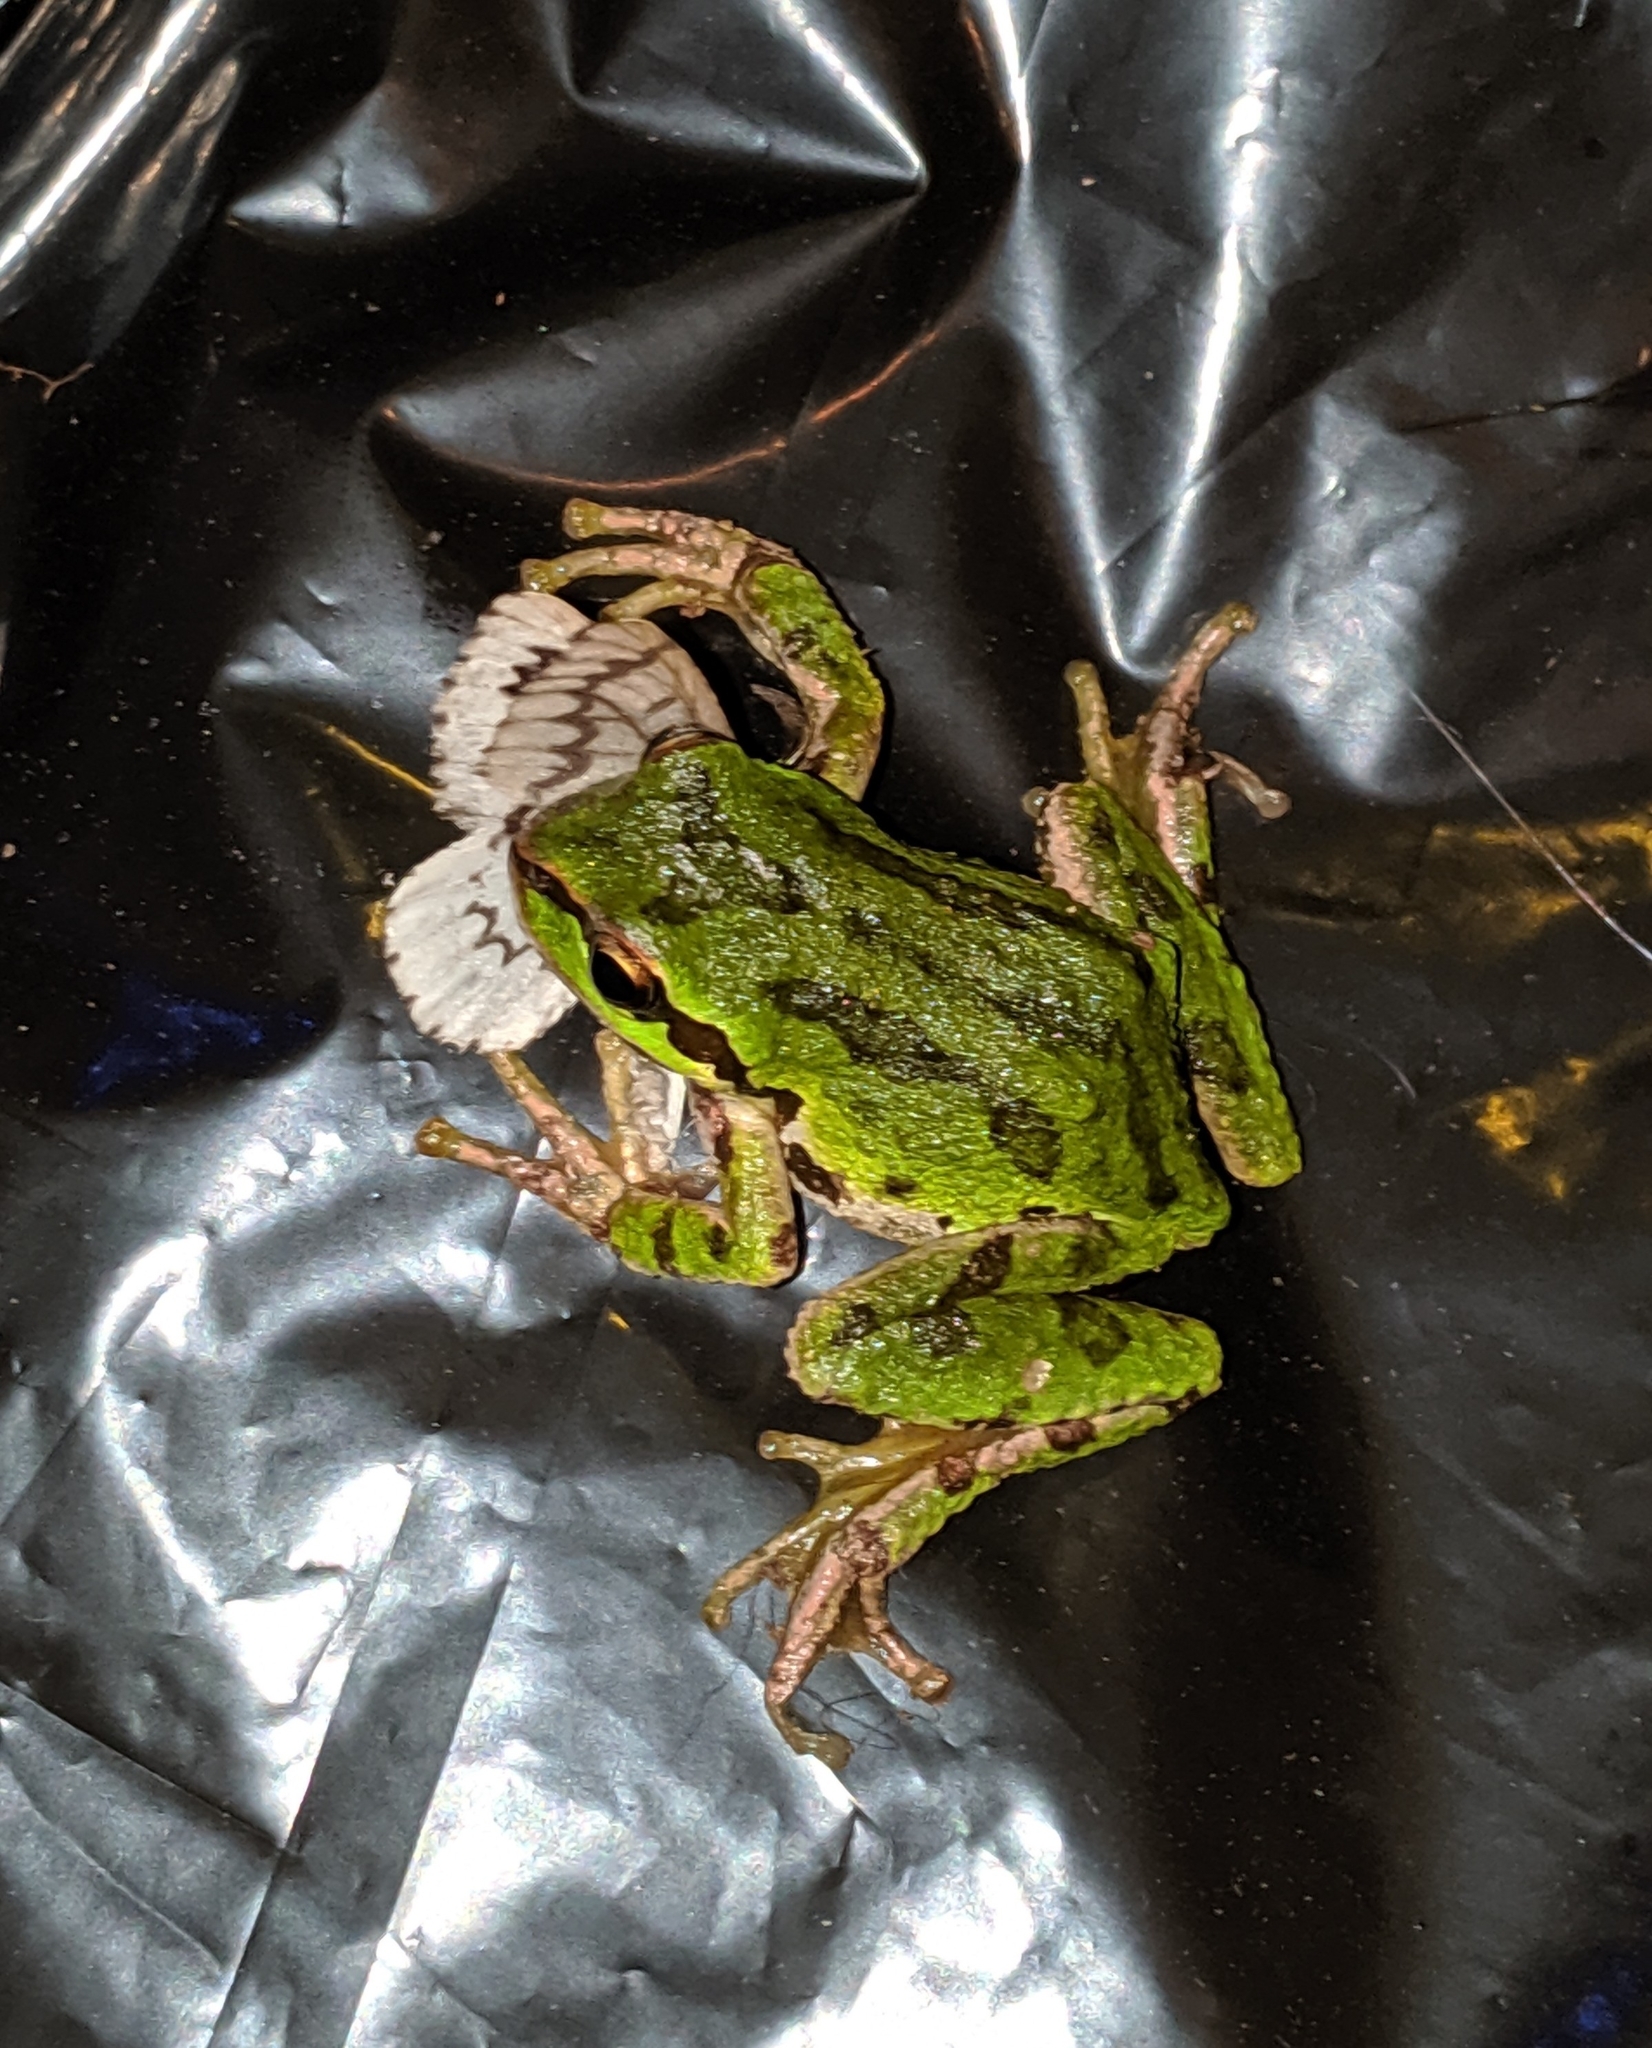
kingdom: Animalia
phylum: Chordata
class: Amphibia
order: Anura
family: Hylidae
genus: Pseudacris
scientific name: Pseudacris regilla
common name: Pacific chorus frog
